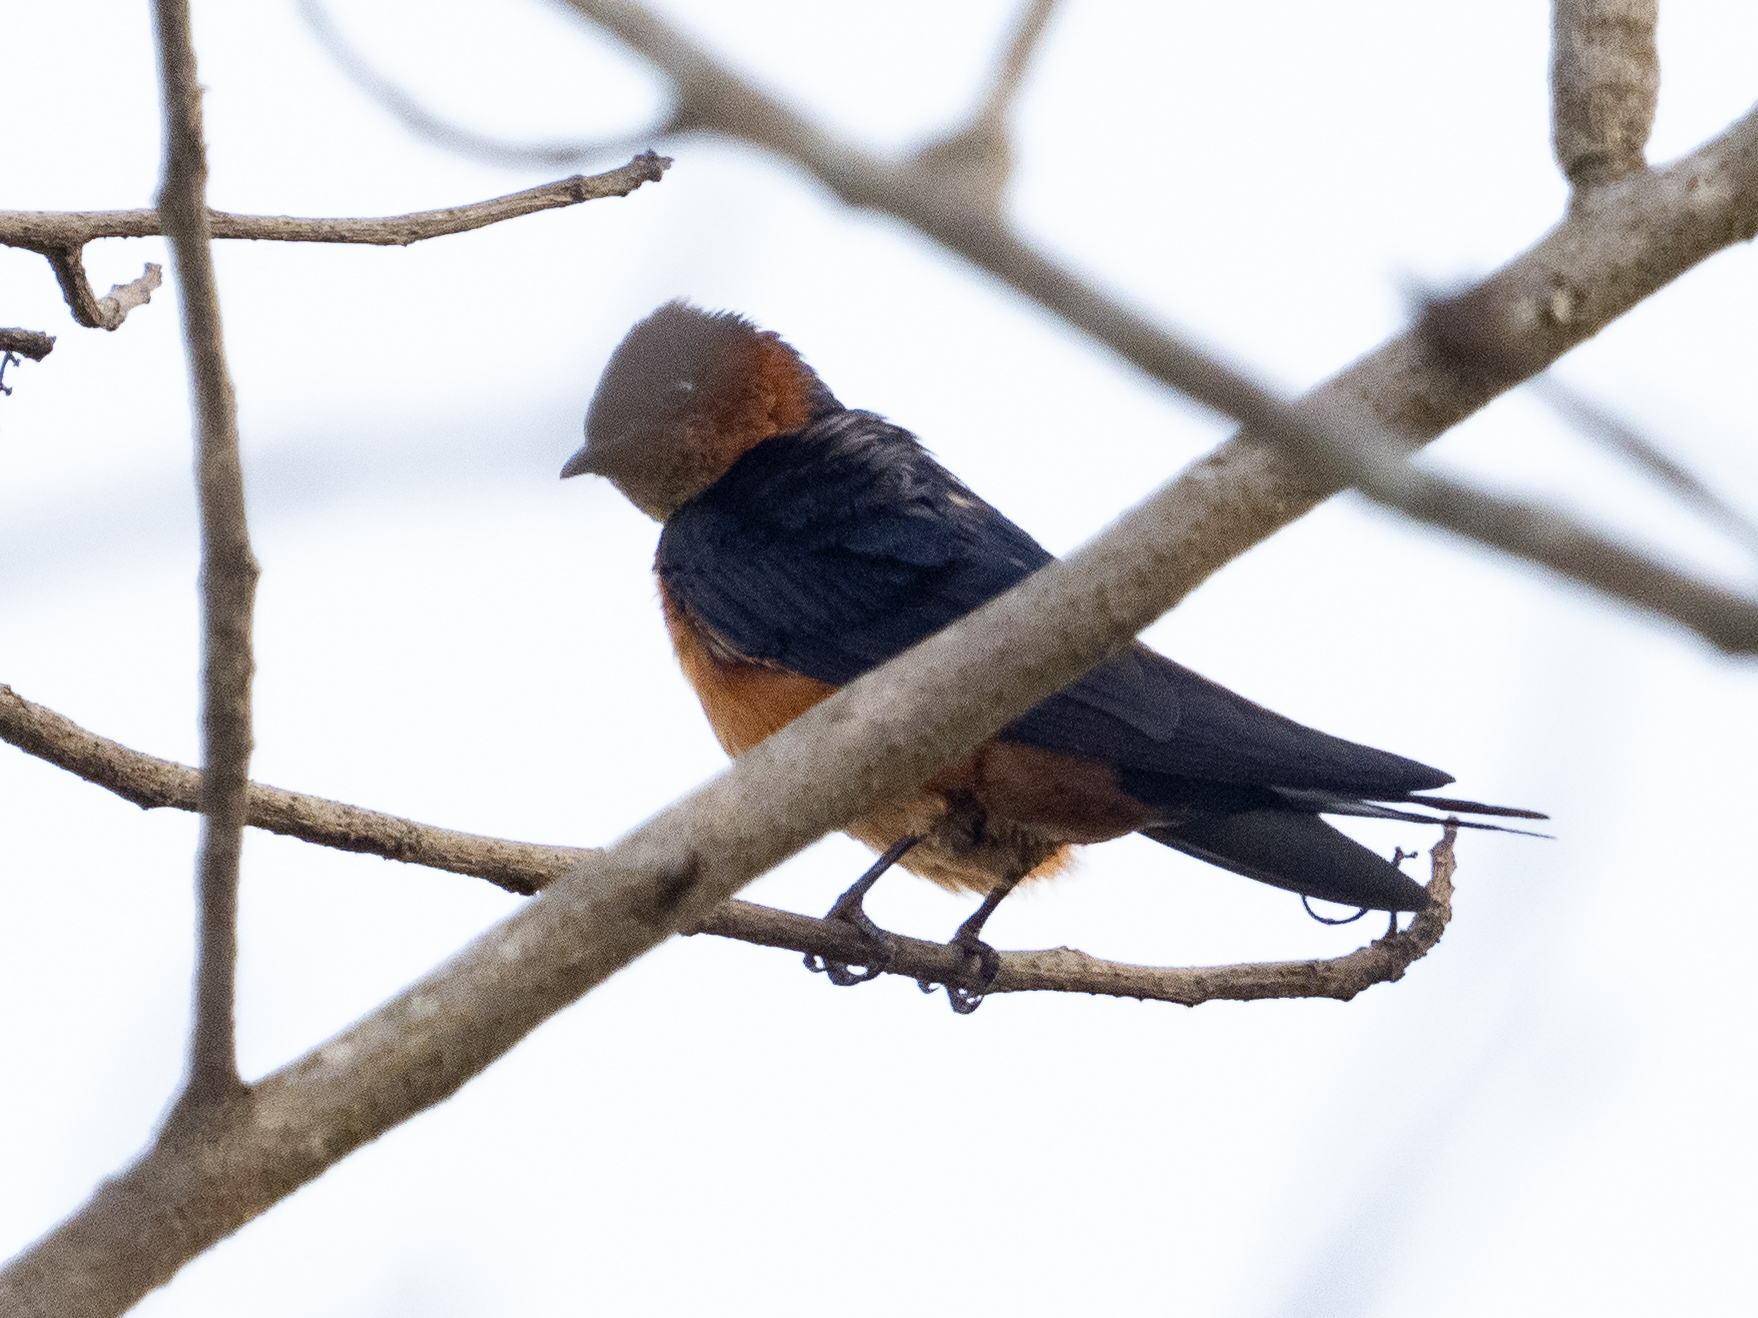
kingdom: Animalia
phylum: Chordata
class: Aves
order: Passeriformes
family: Hirundinidae
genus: Cecropis
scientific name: Cecropis hyperythra
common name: Sri lanka swallow
